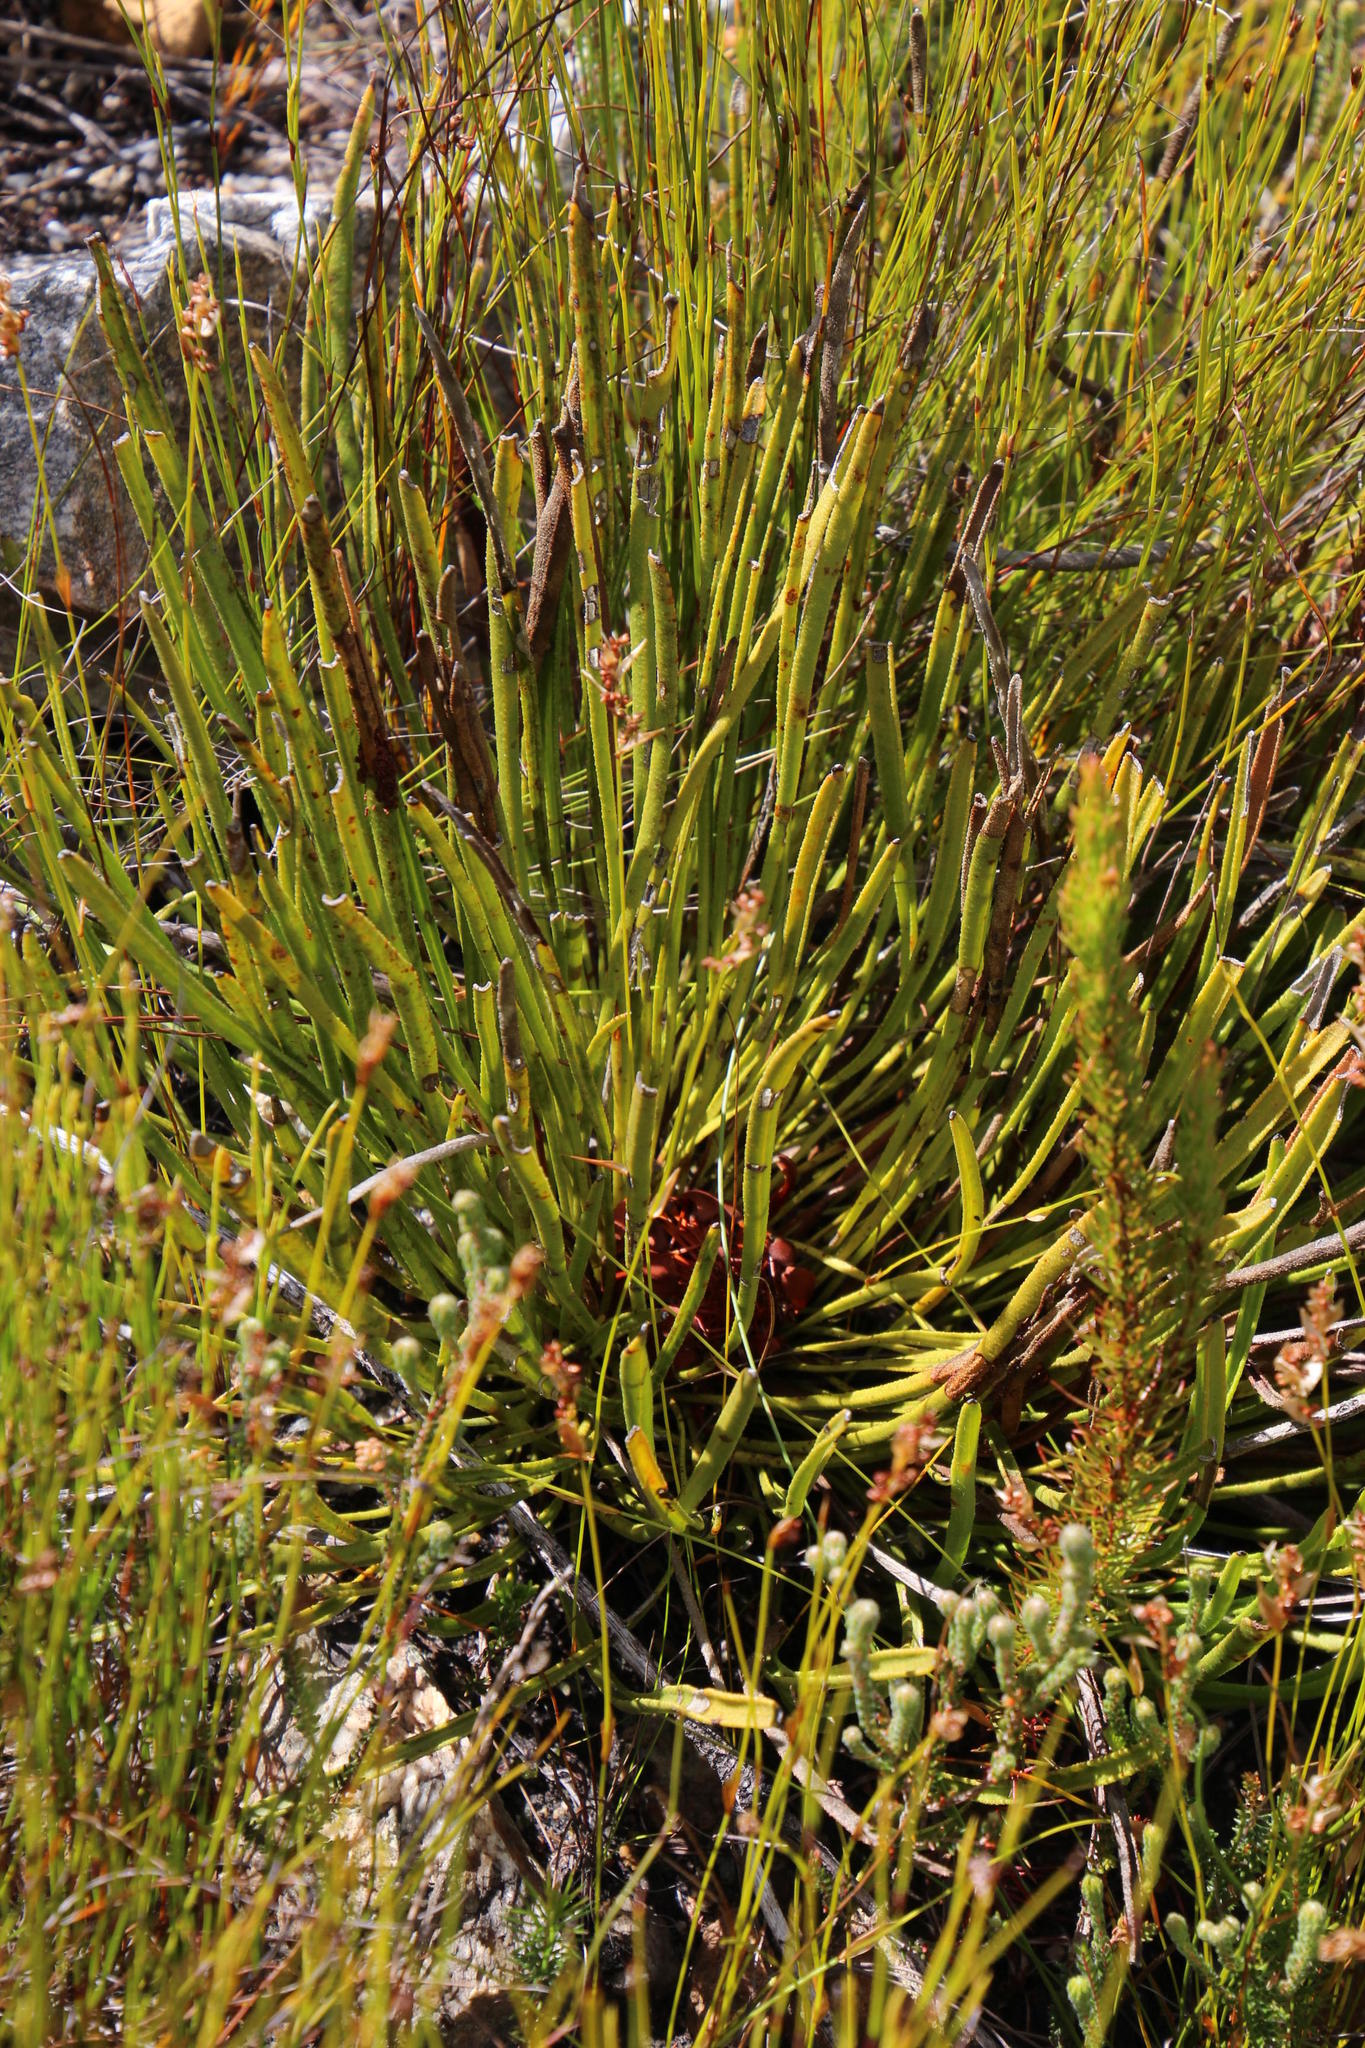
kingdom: Plantae
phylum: Tracheophyta
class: Magnoliopsida
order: Proteales
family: Proteaceae
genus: Protea
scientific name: Protea scabra
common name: Sandpaper-leaf sugarbush
